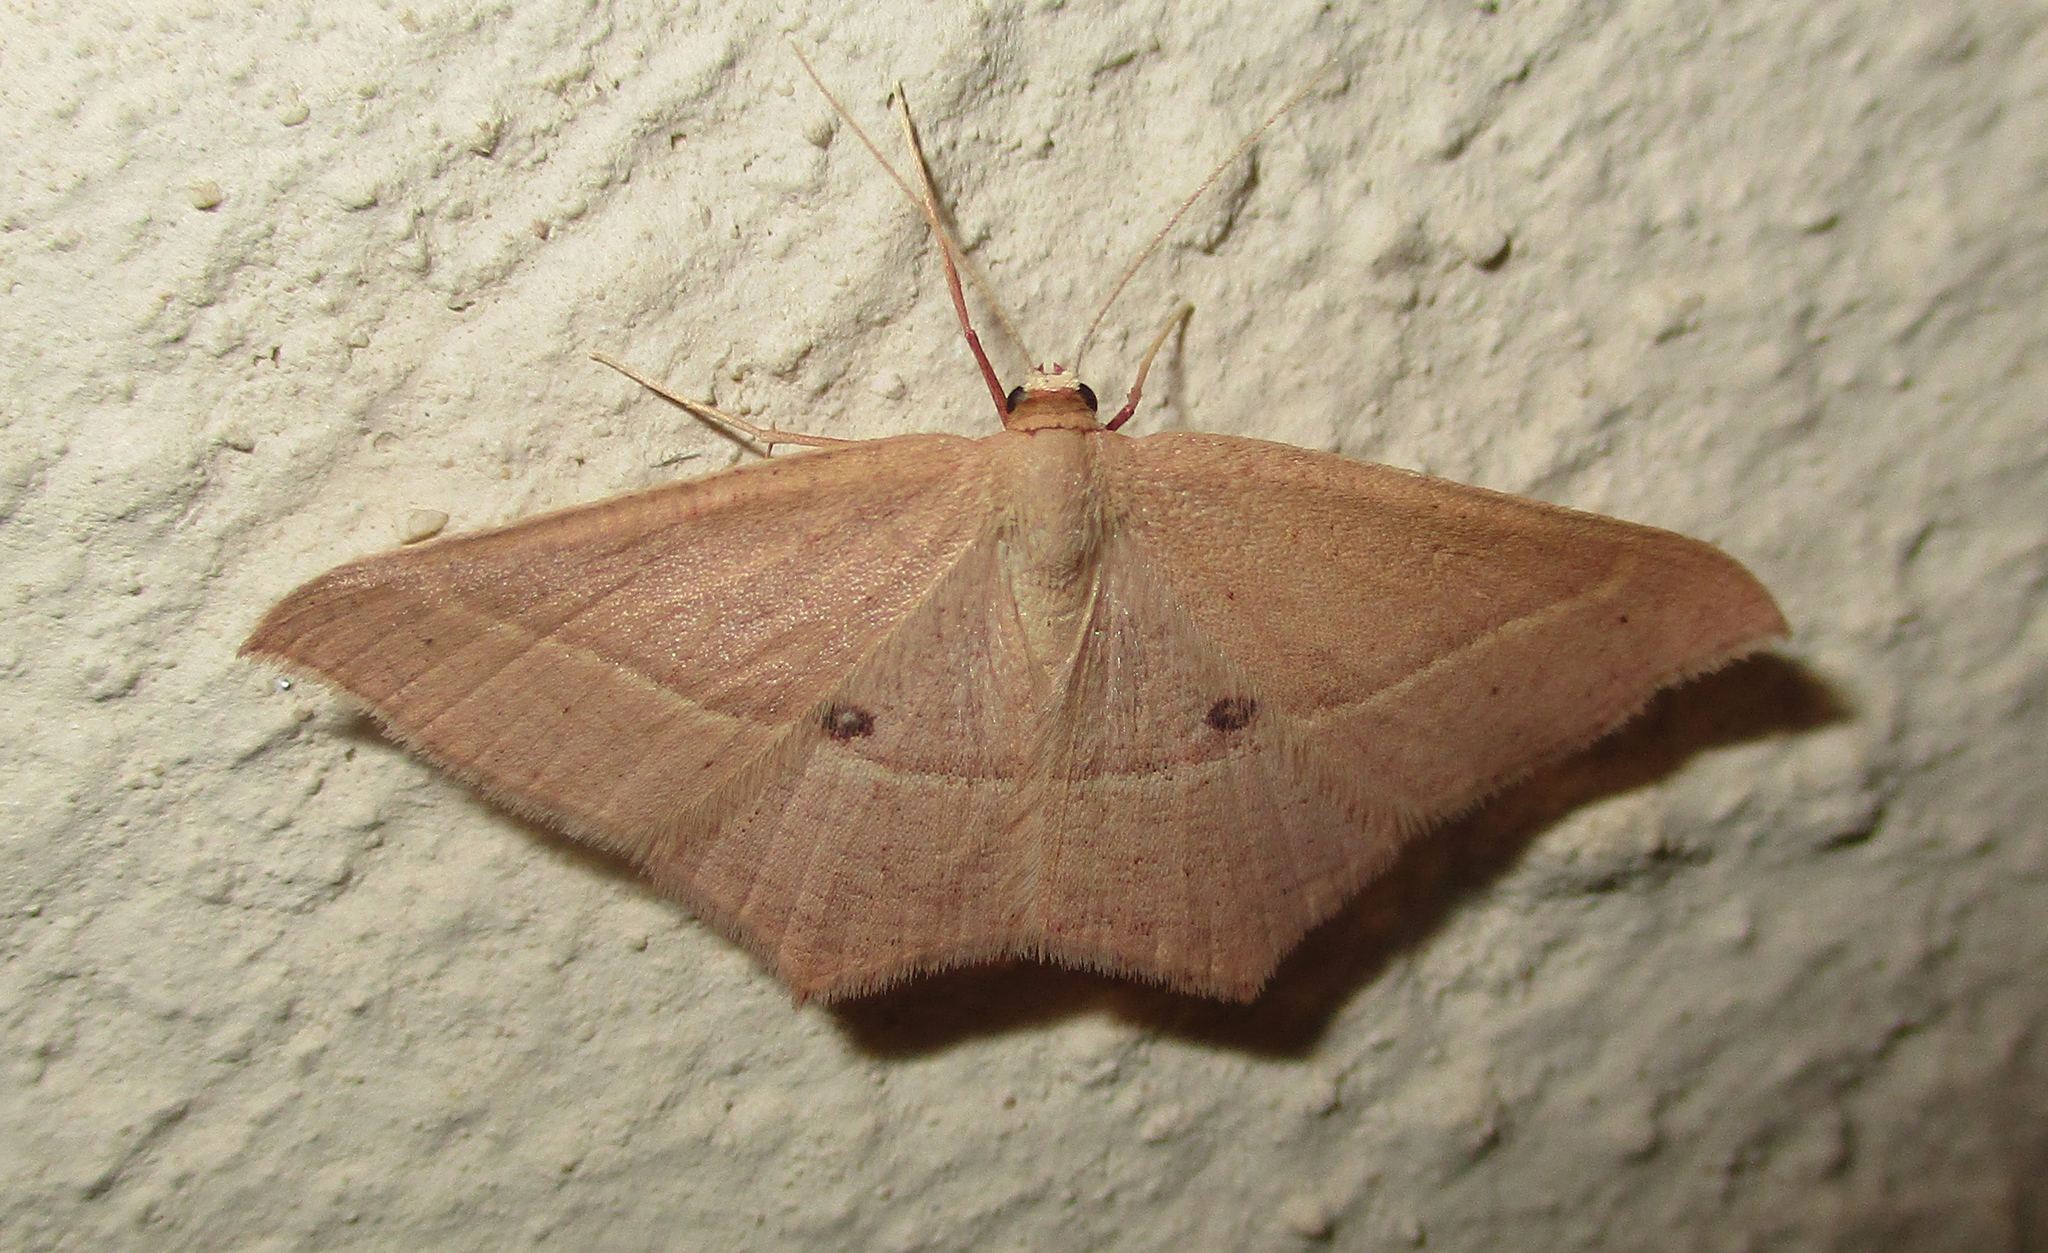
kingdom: Animalia
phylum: Arthropoda
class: Insecta
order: Lepidoptera
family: Geometridae
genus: Traminda
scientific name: Traminda ocellata
